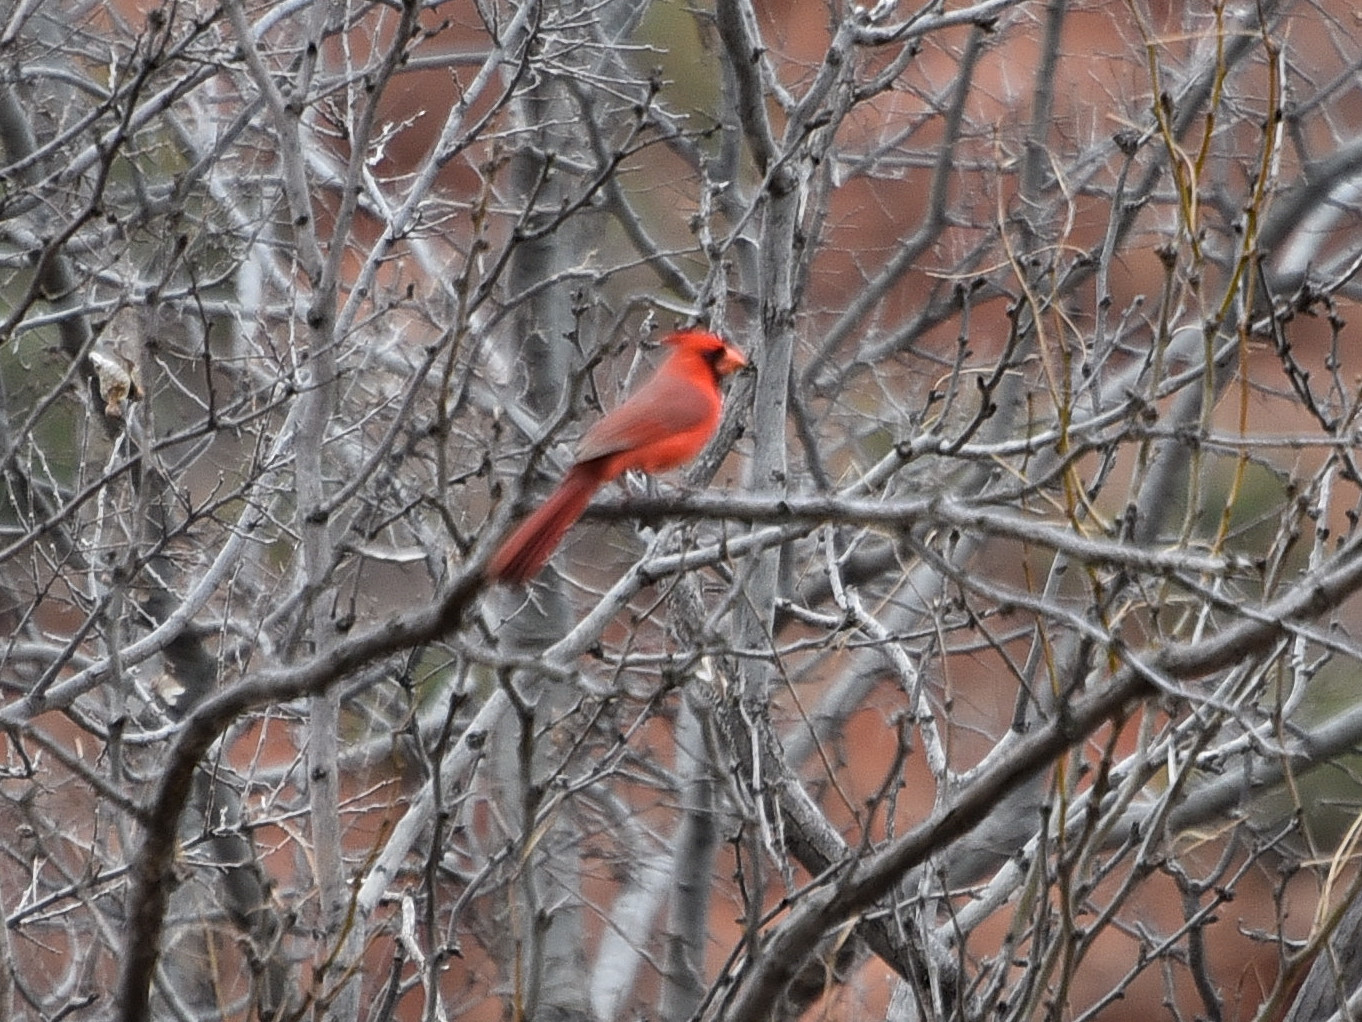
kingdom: Animalia
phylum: Chordata
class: Aves
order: Passeriformes
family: Cardinalidae
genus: Cardinalis
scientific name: Cardinalis cardinalis
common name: Northern cardinal
